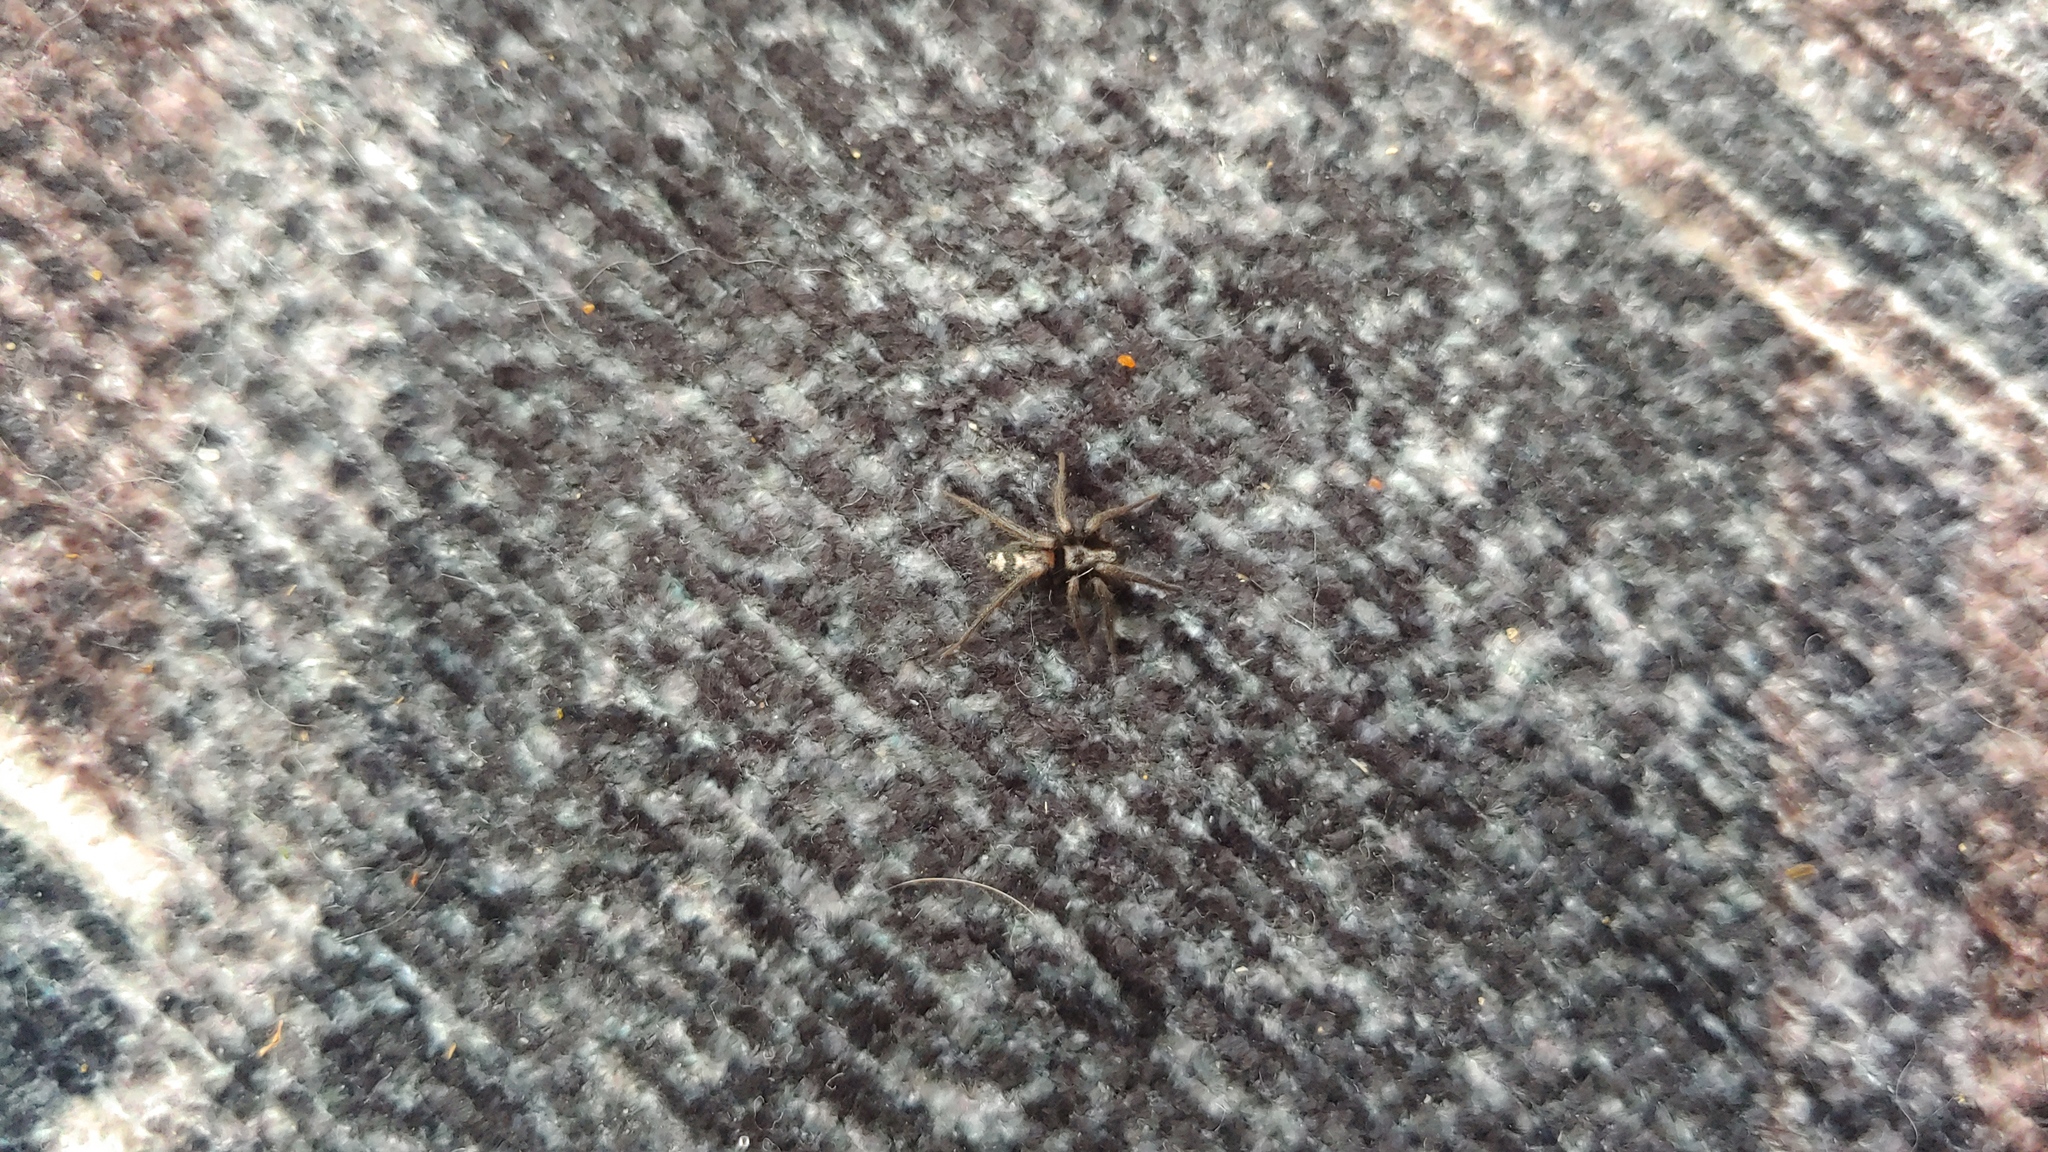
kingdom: Animalia
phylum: Arthropoda
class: Arachnida
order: Araneae
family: Gnaphosidae
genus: Herpyllus
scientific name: Herpyllus ecclesiasticus
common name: Eastern parson spider
